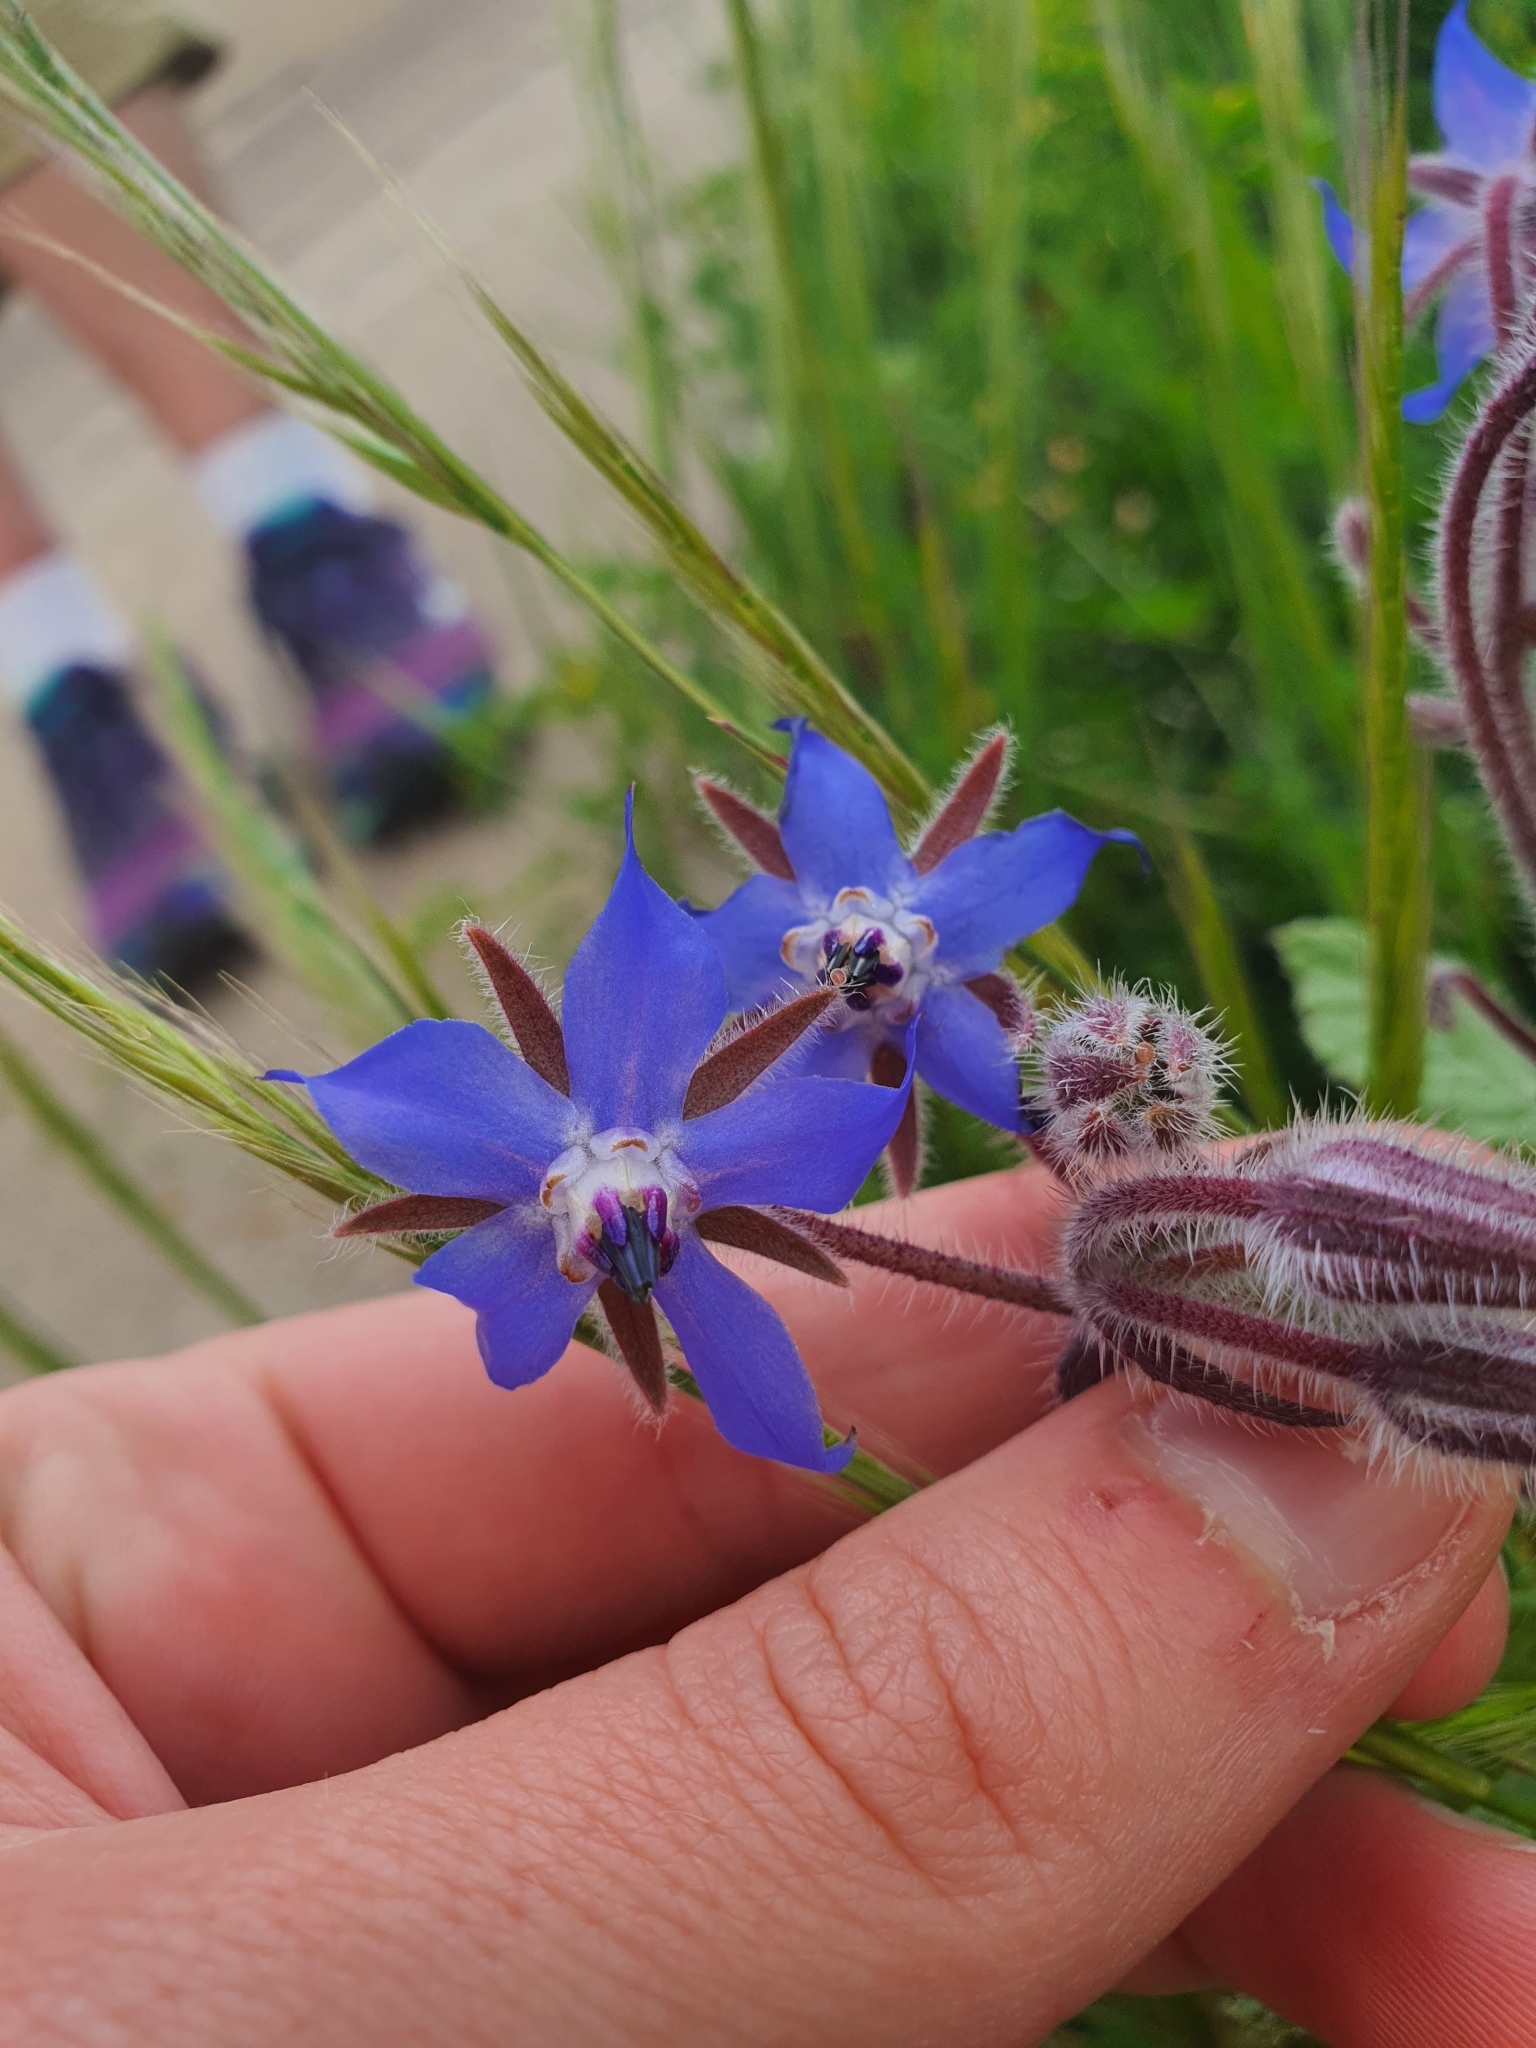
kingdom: Plantae
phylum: Tracheophyta
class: Magnoliopsida
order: Boraginales
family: Boraginaceae
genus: Borago
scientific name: Borago officinalis
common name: Borage
